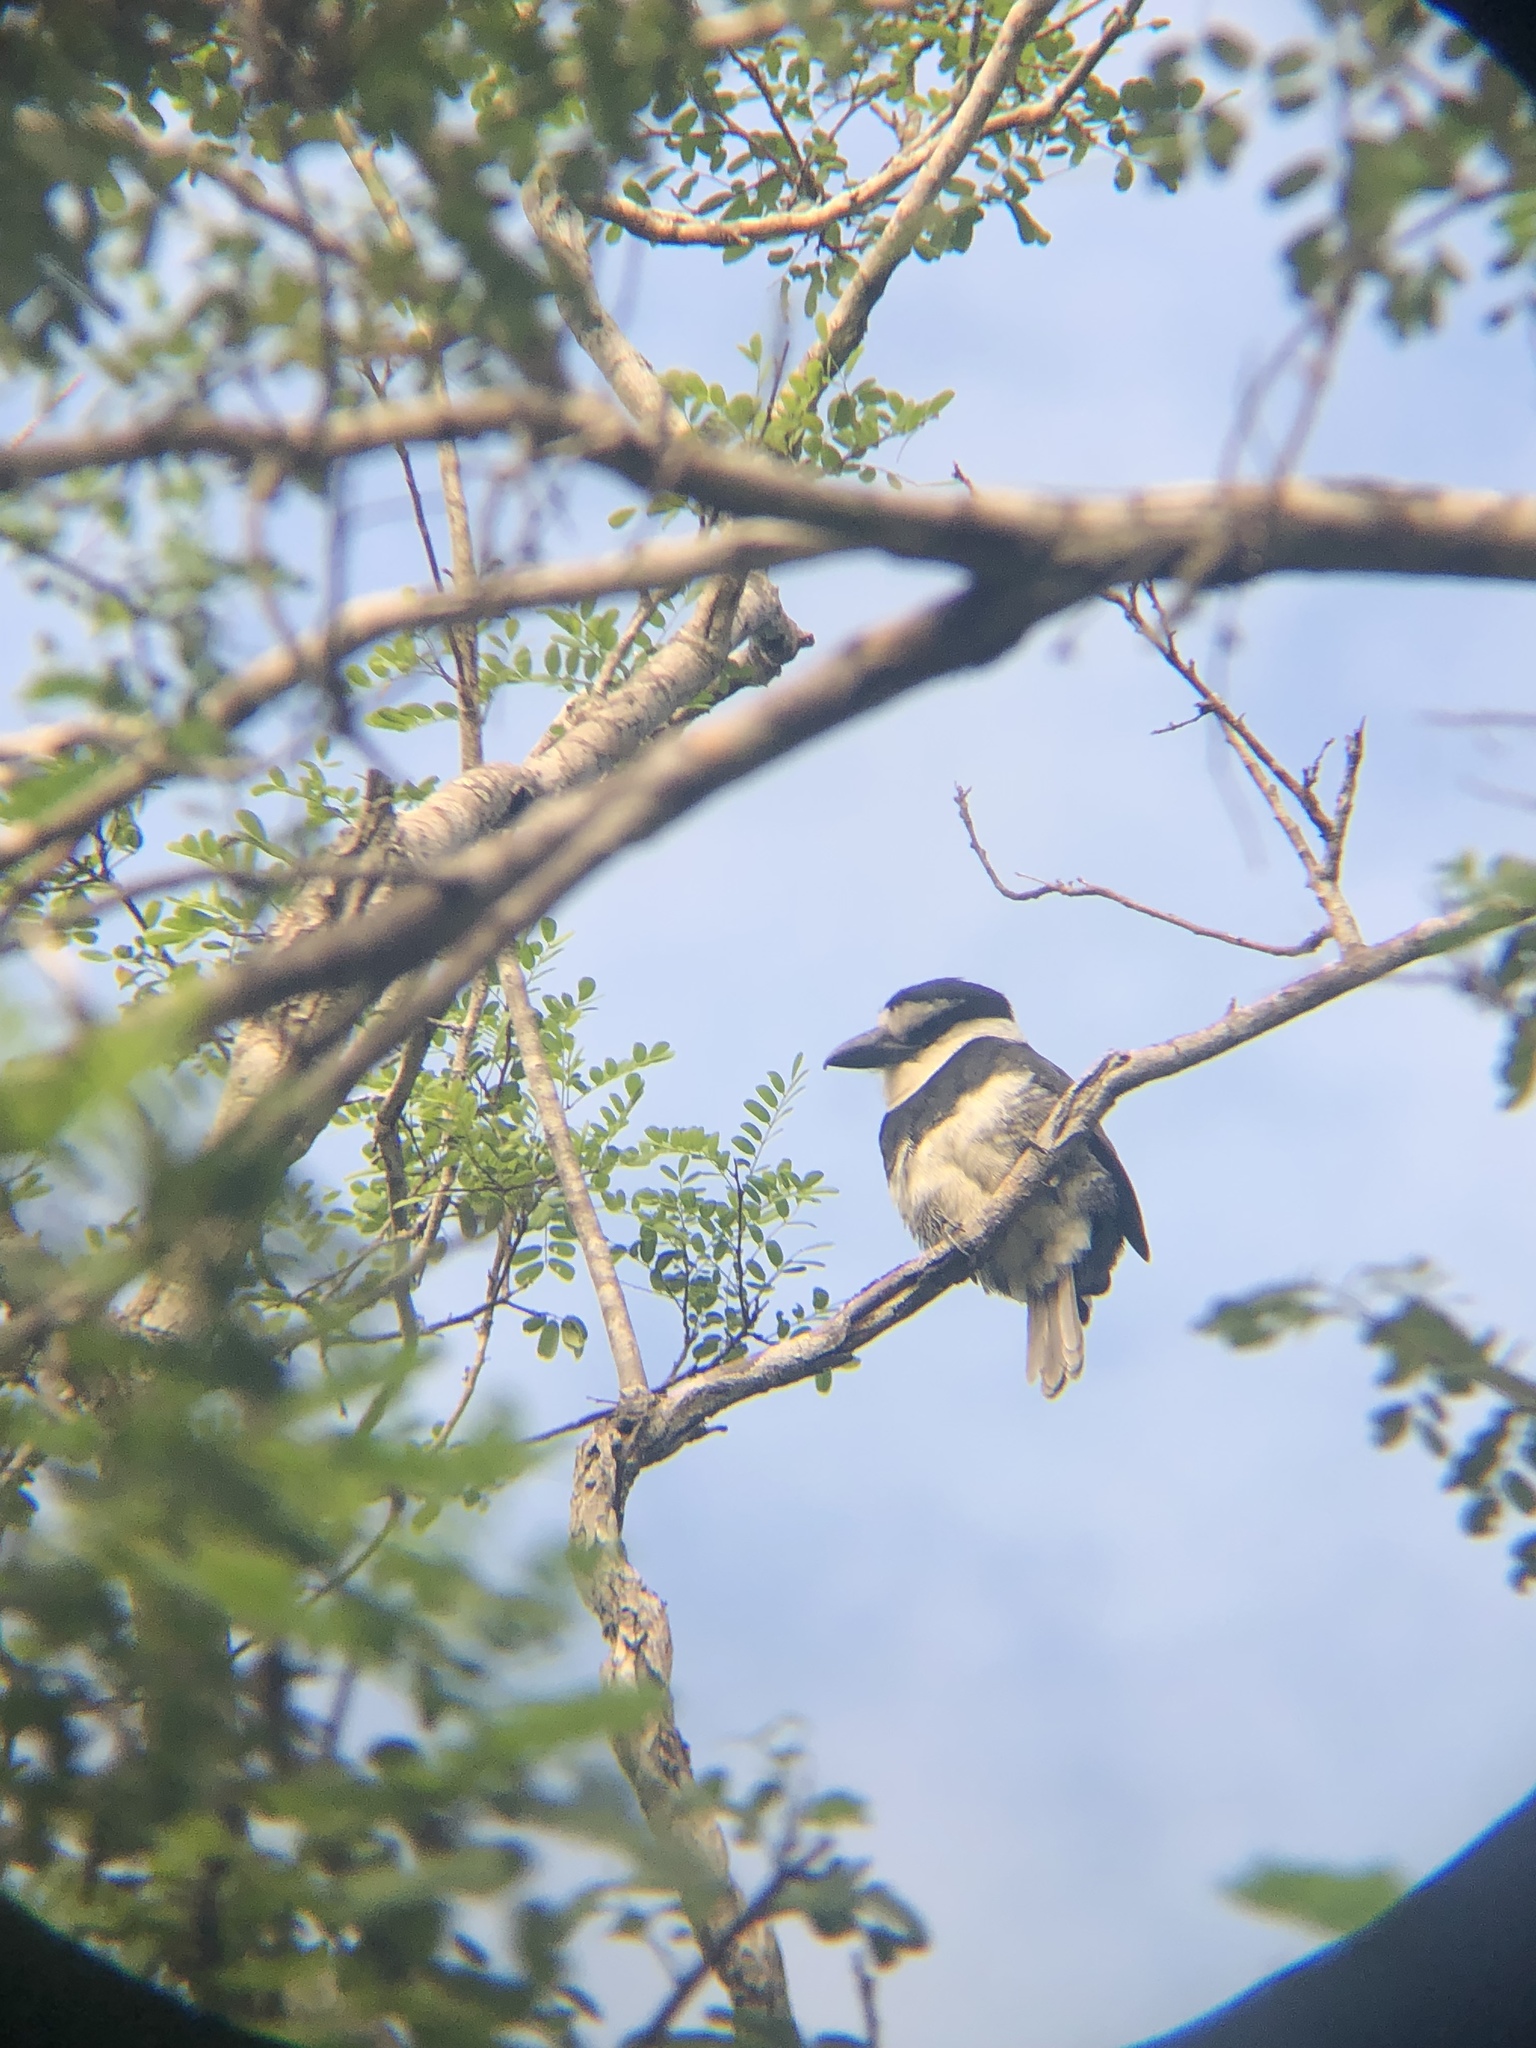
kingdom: Animalia
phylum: Chordata
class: Aves
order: Piciformes
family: Bucconidae
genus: Notharchus
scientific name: Notharchus hyperrhynchus
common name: White-necked puffbird
